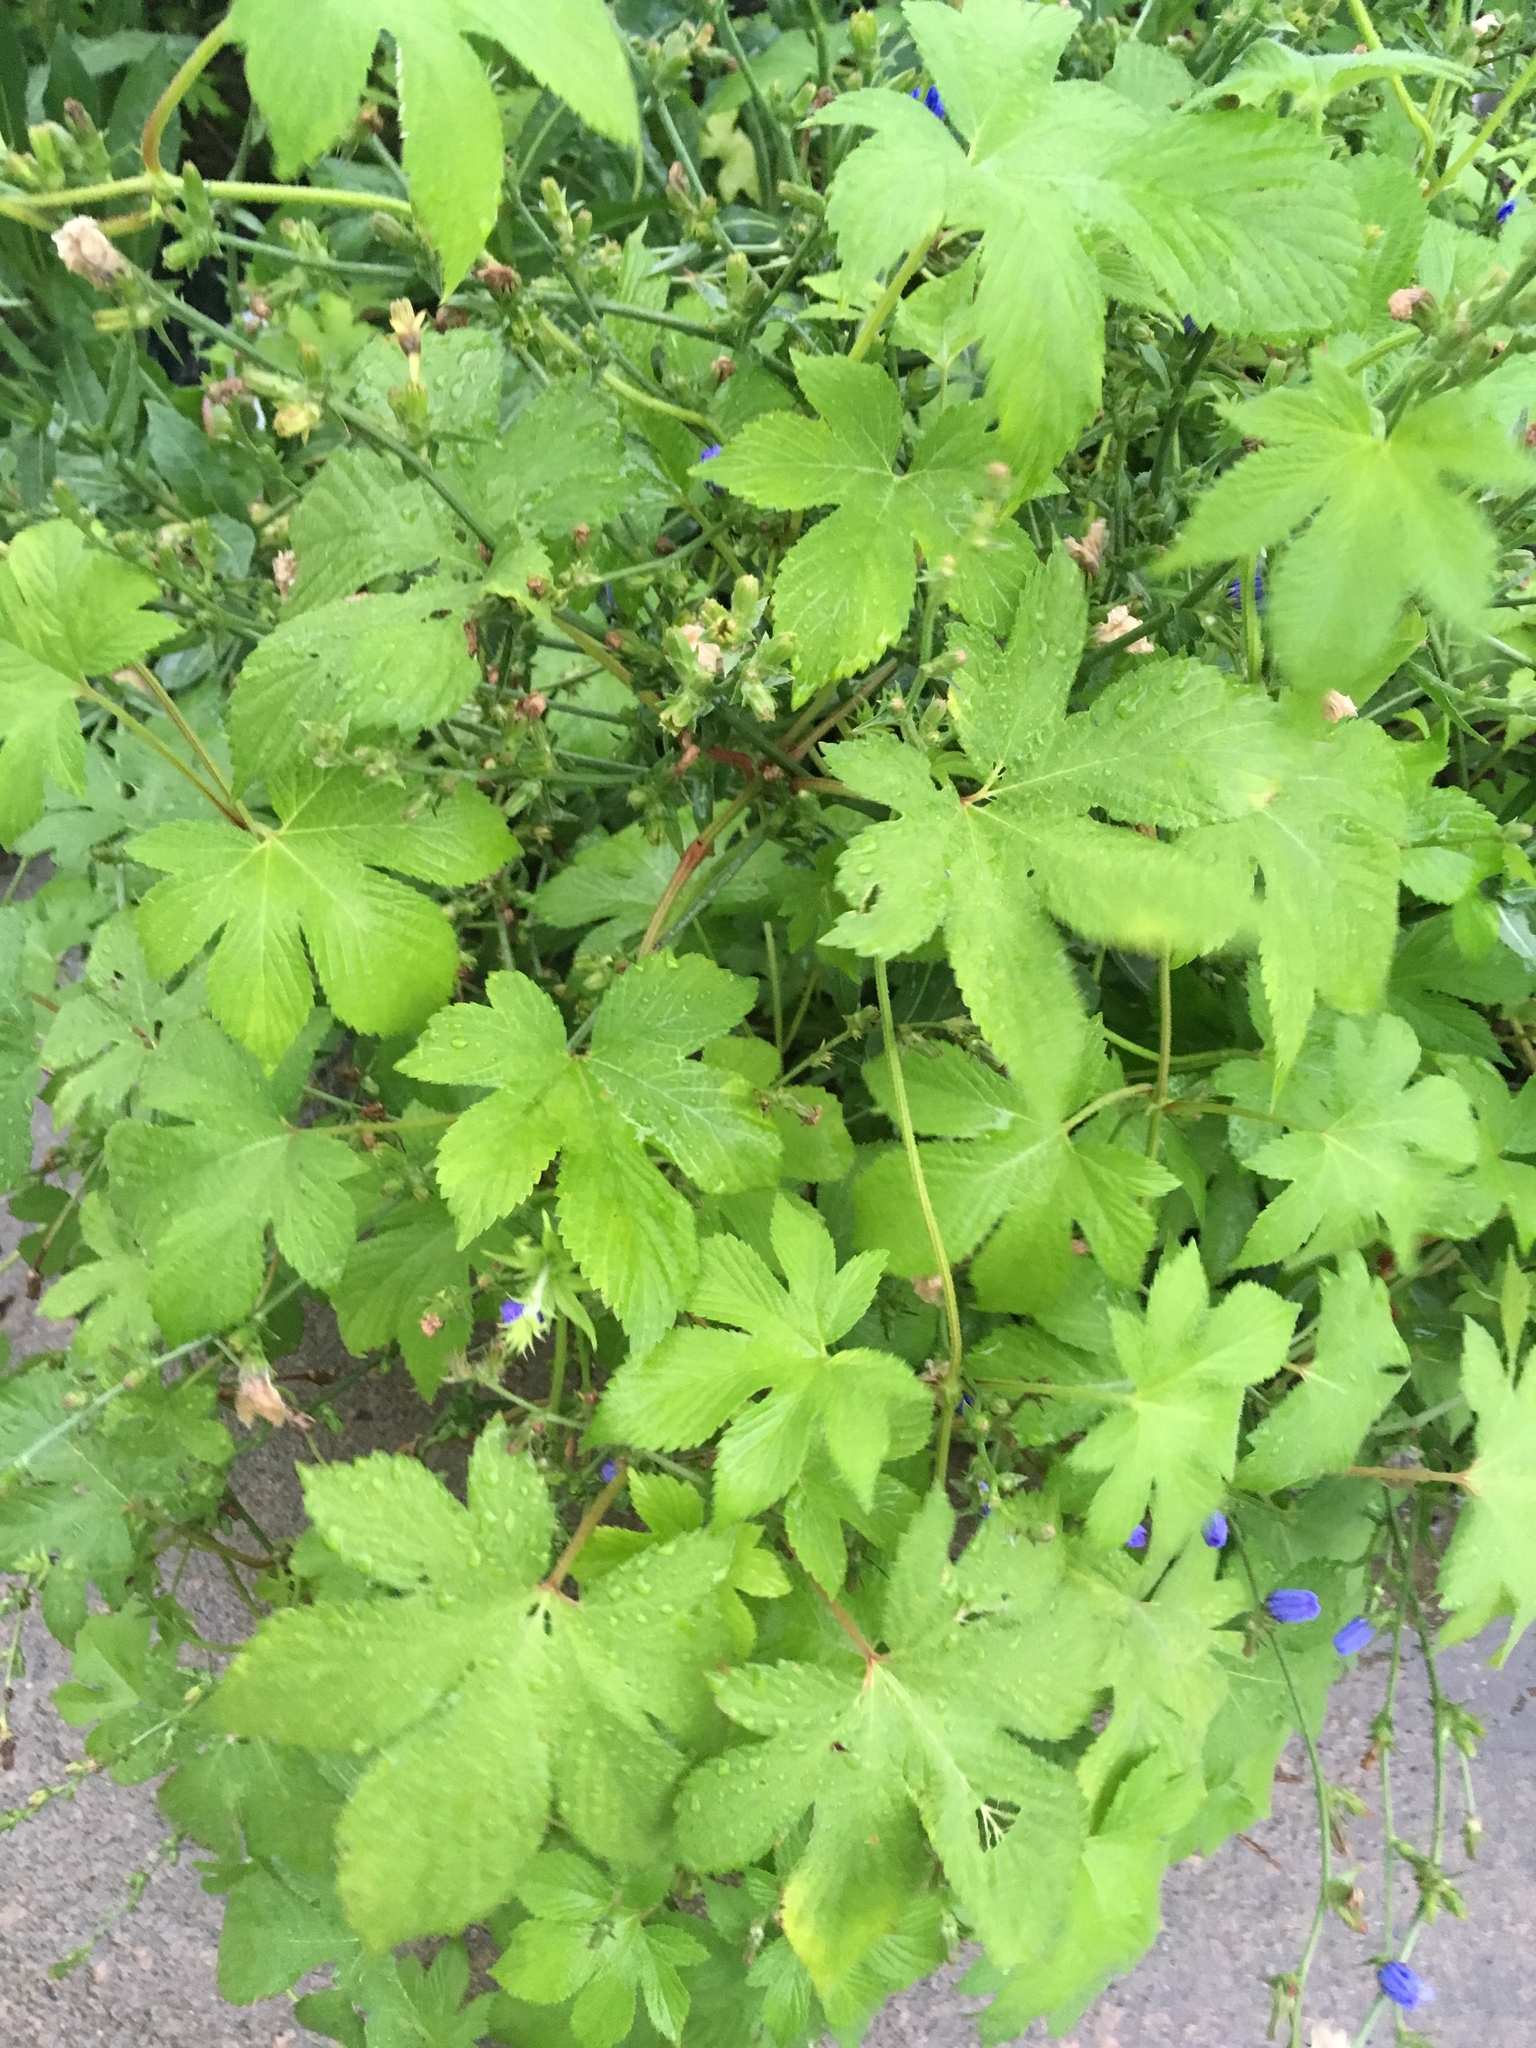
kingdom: Plantae
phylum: Tracheophyta
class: Magnoliopsida
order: Rosales
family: Cannabaceae
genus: Humulus
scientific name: Humulus scandens
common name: Japanese hop
